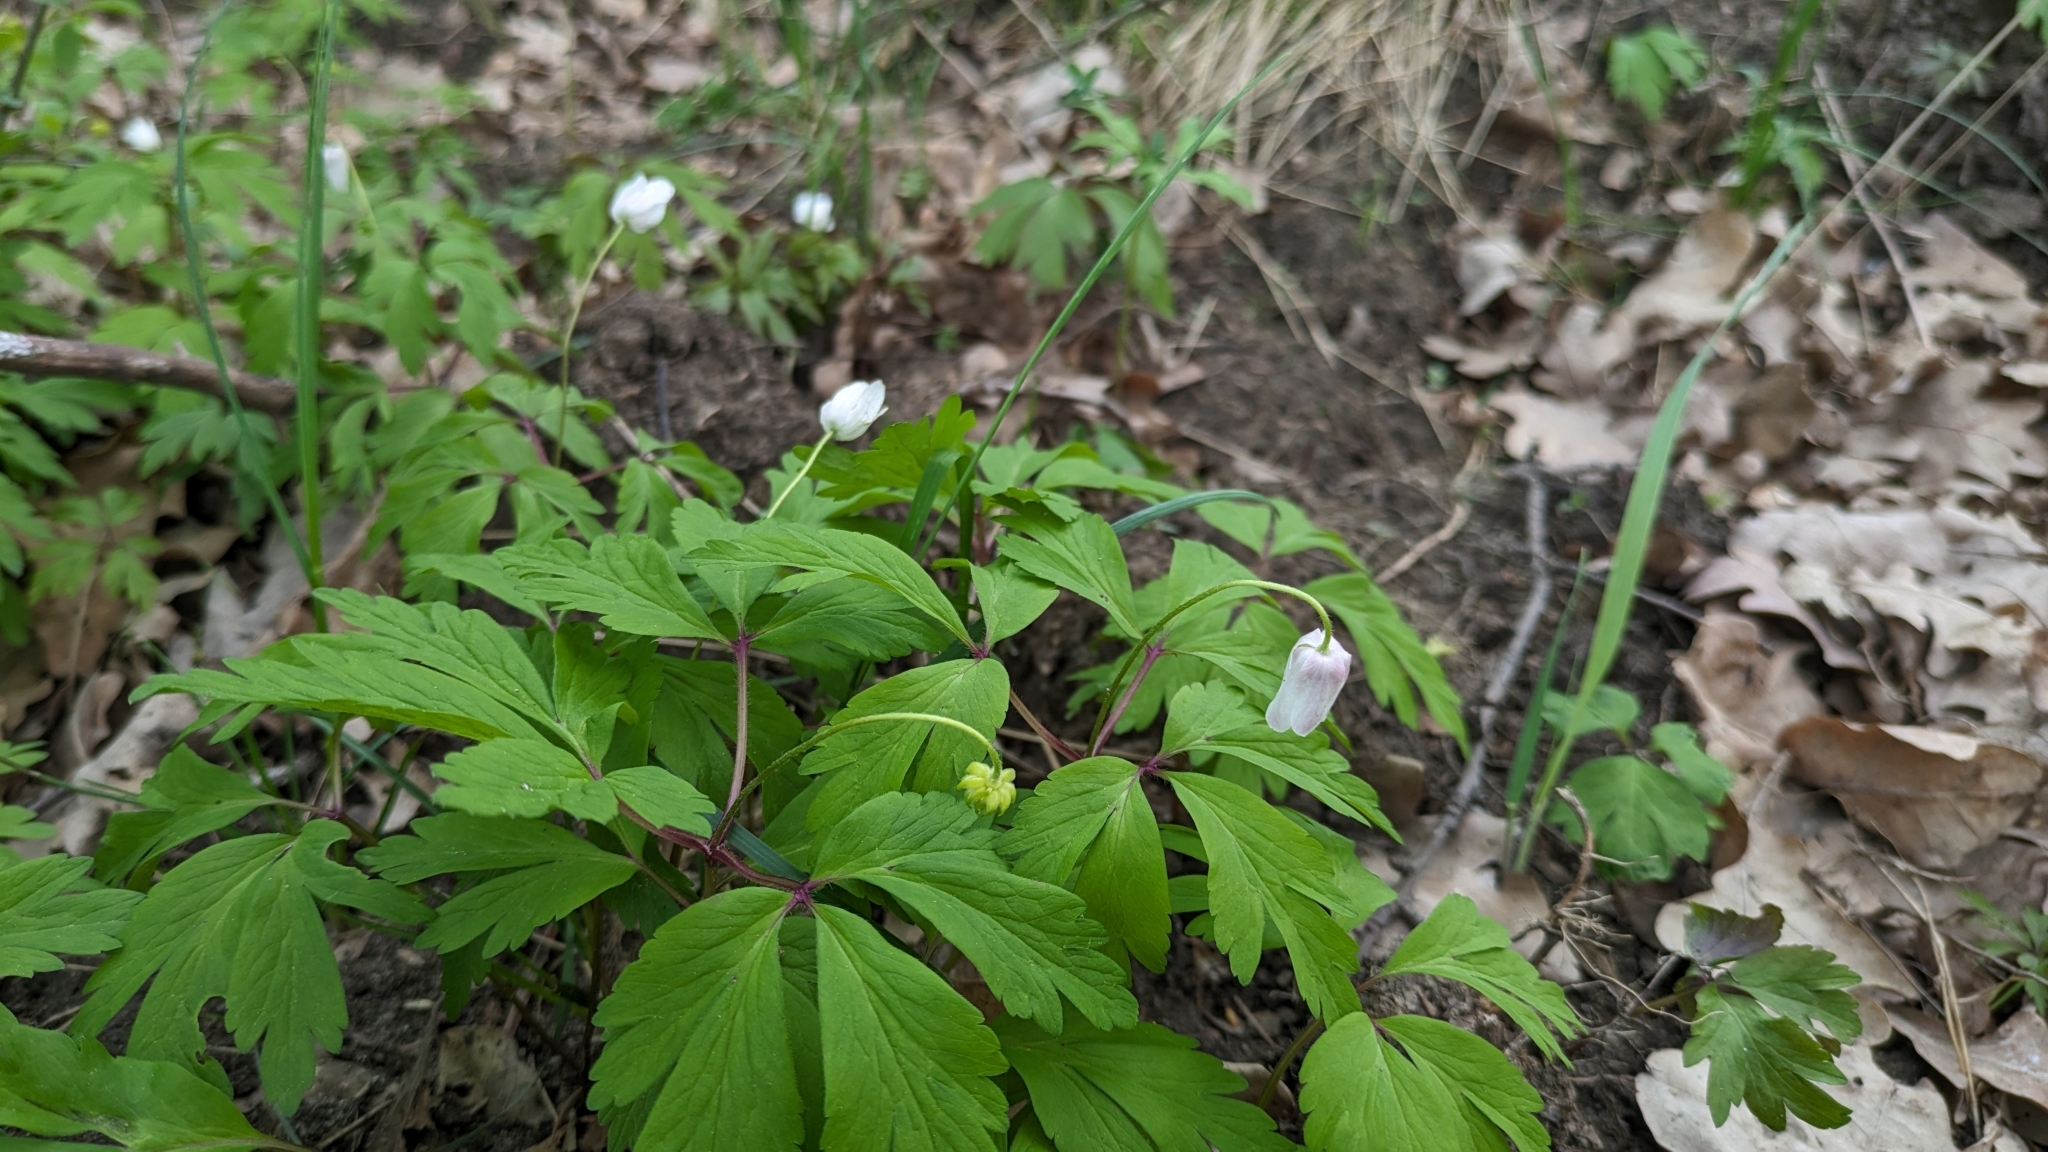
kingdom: Plantae
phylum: Tracheophyta
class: Magnoliopsida
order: Ranunculales
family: Ranunculaceae
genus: Anemone
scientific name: Anemone nemorosa
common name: Wood anemone
